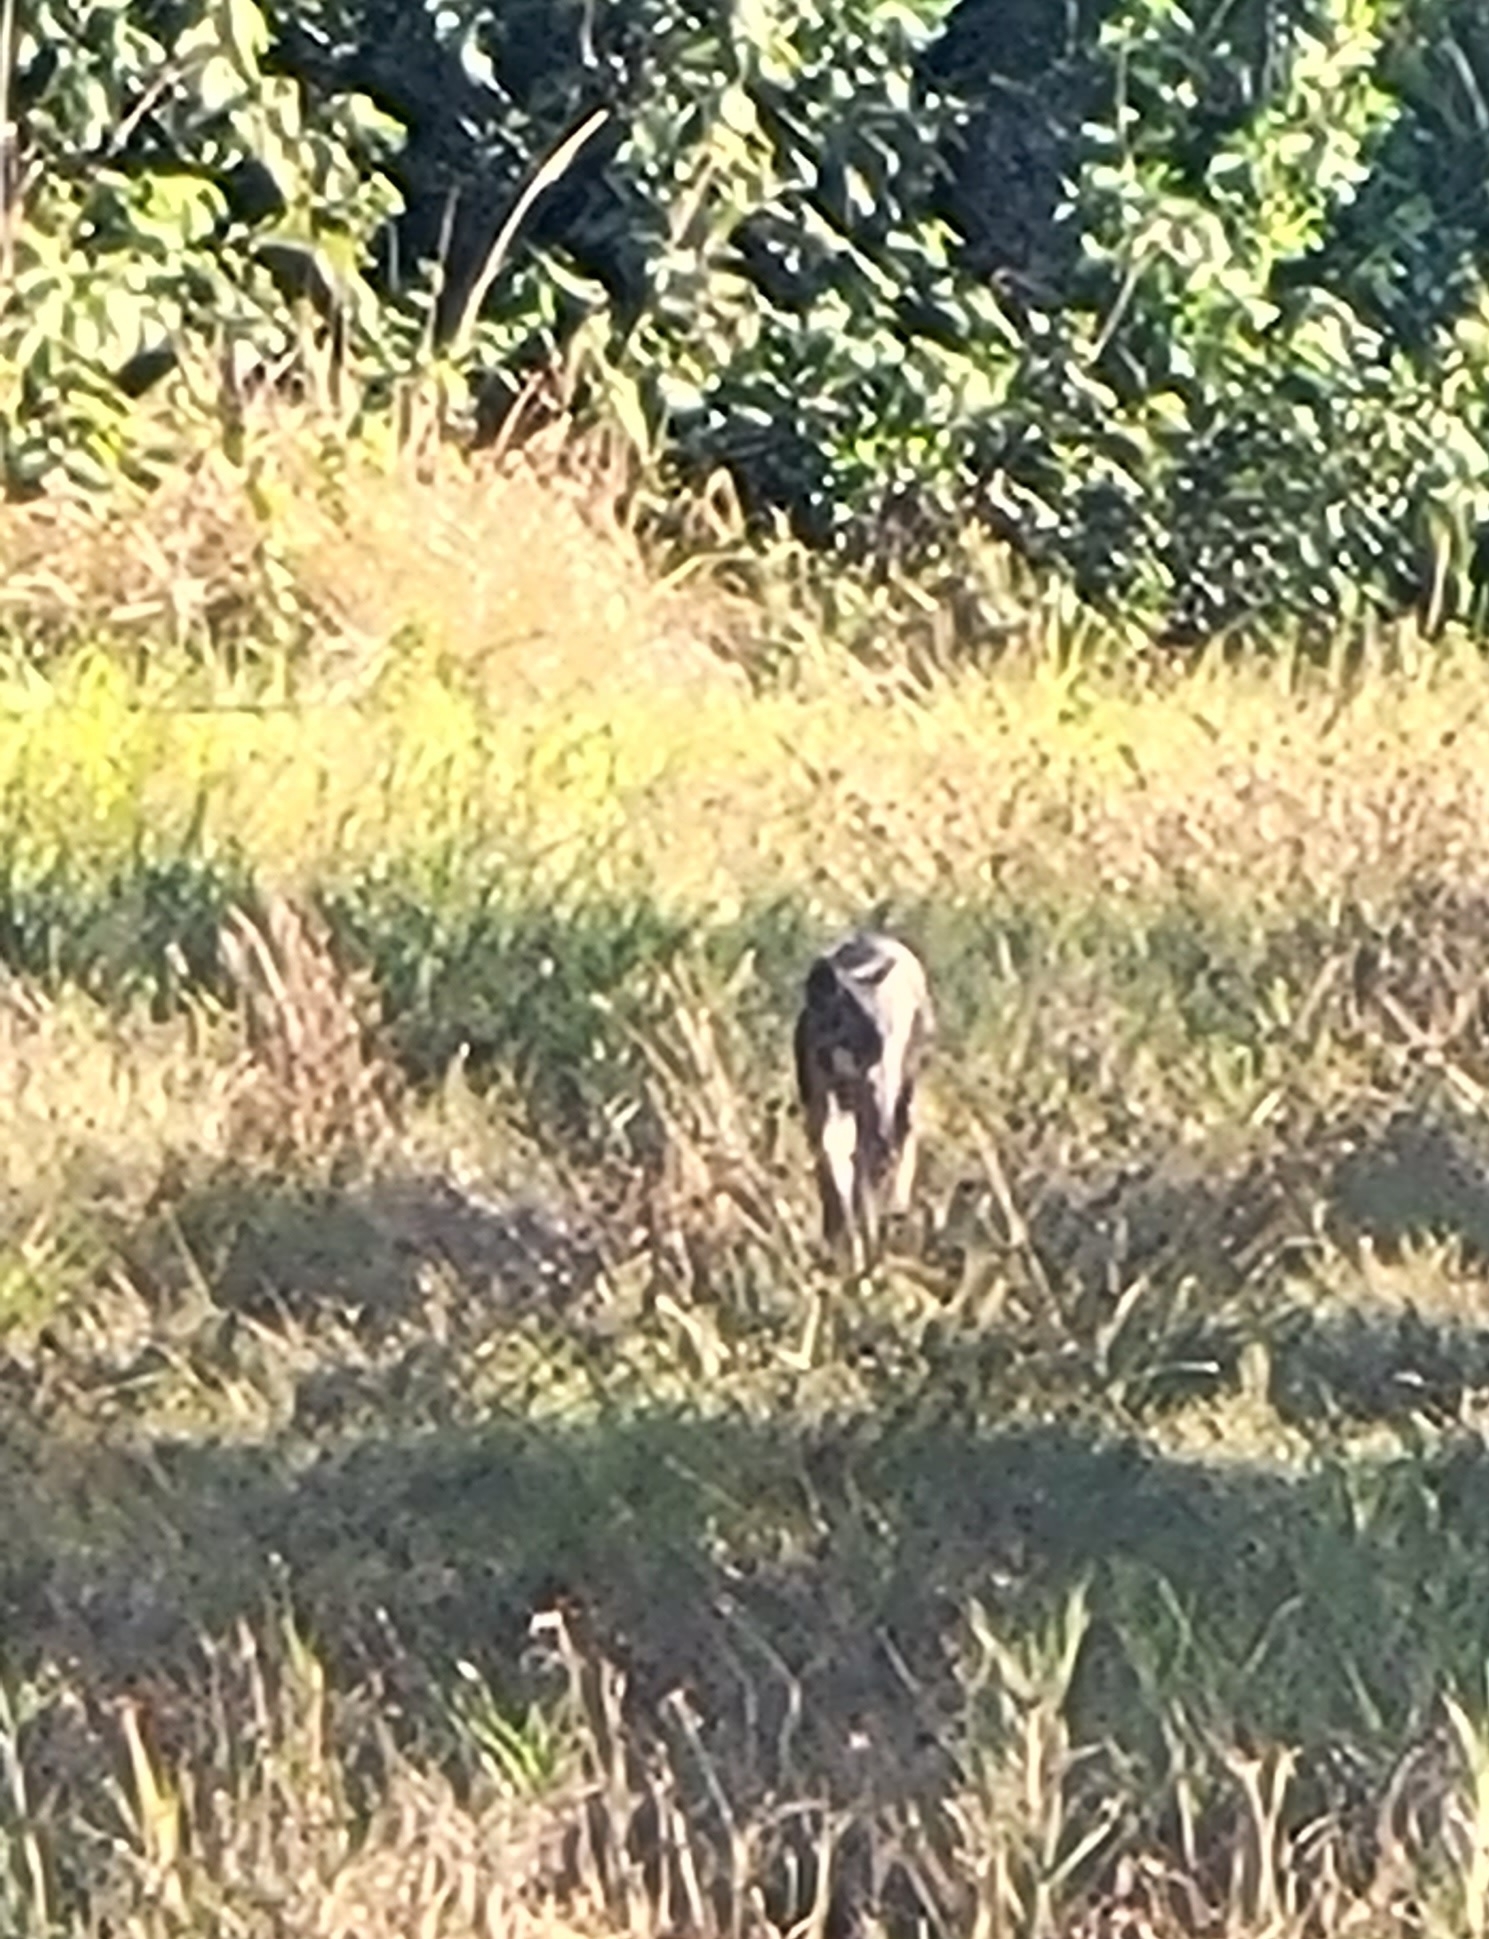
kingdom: Animalia
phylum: Chordata
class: Mammalia
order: Carnivora
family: Felidae
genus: Lynx
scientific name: Lynx rufus
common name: Bobcat
